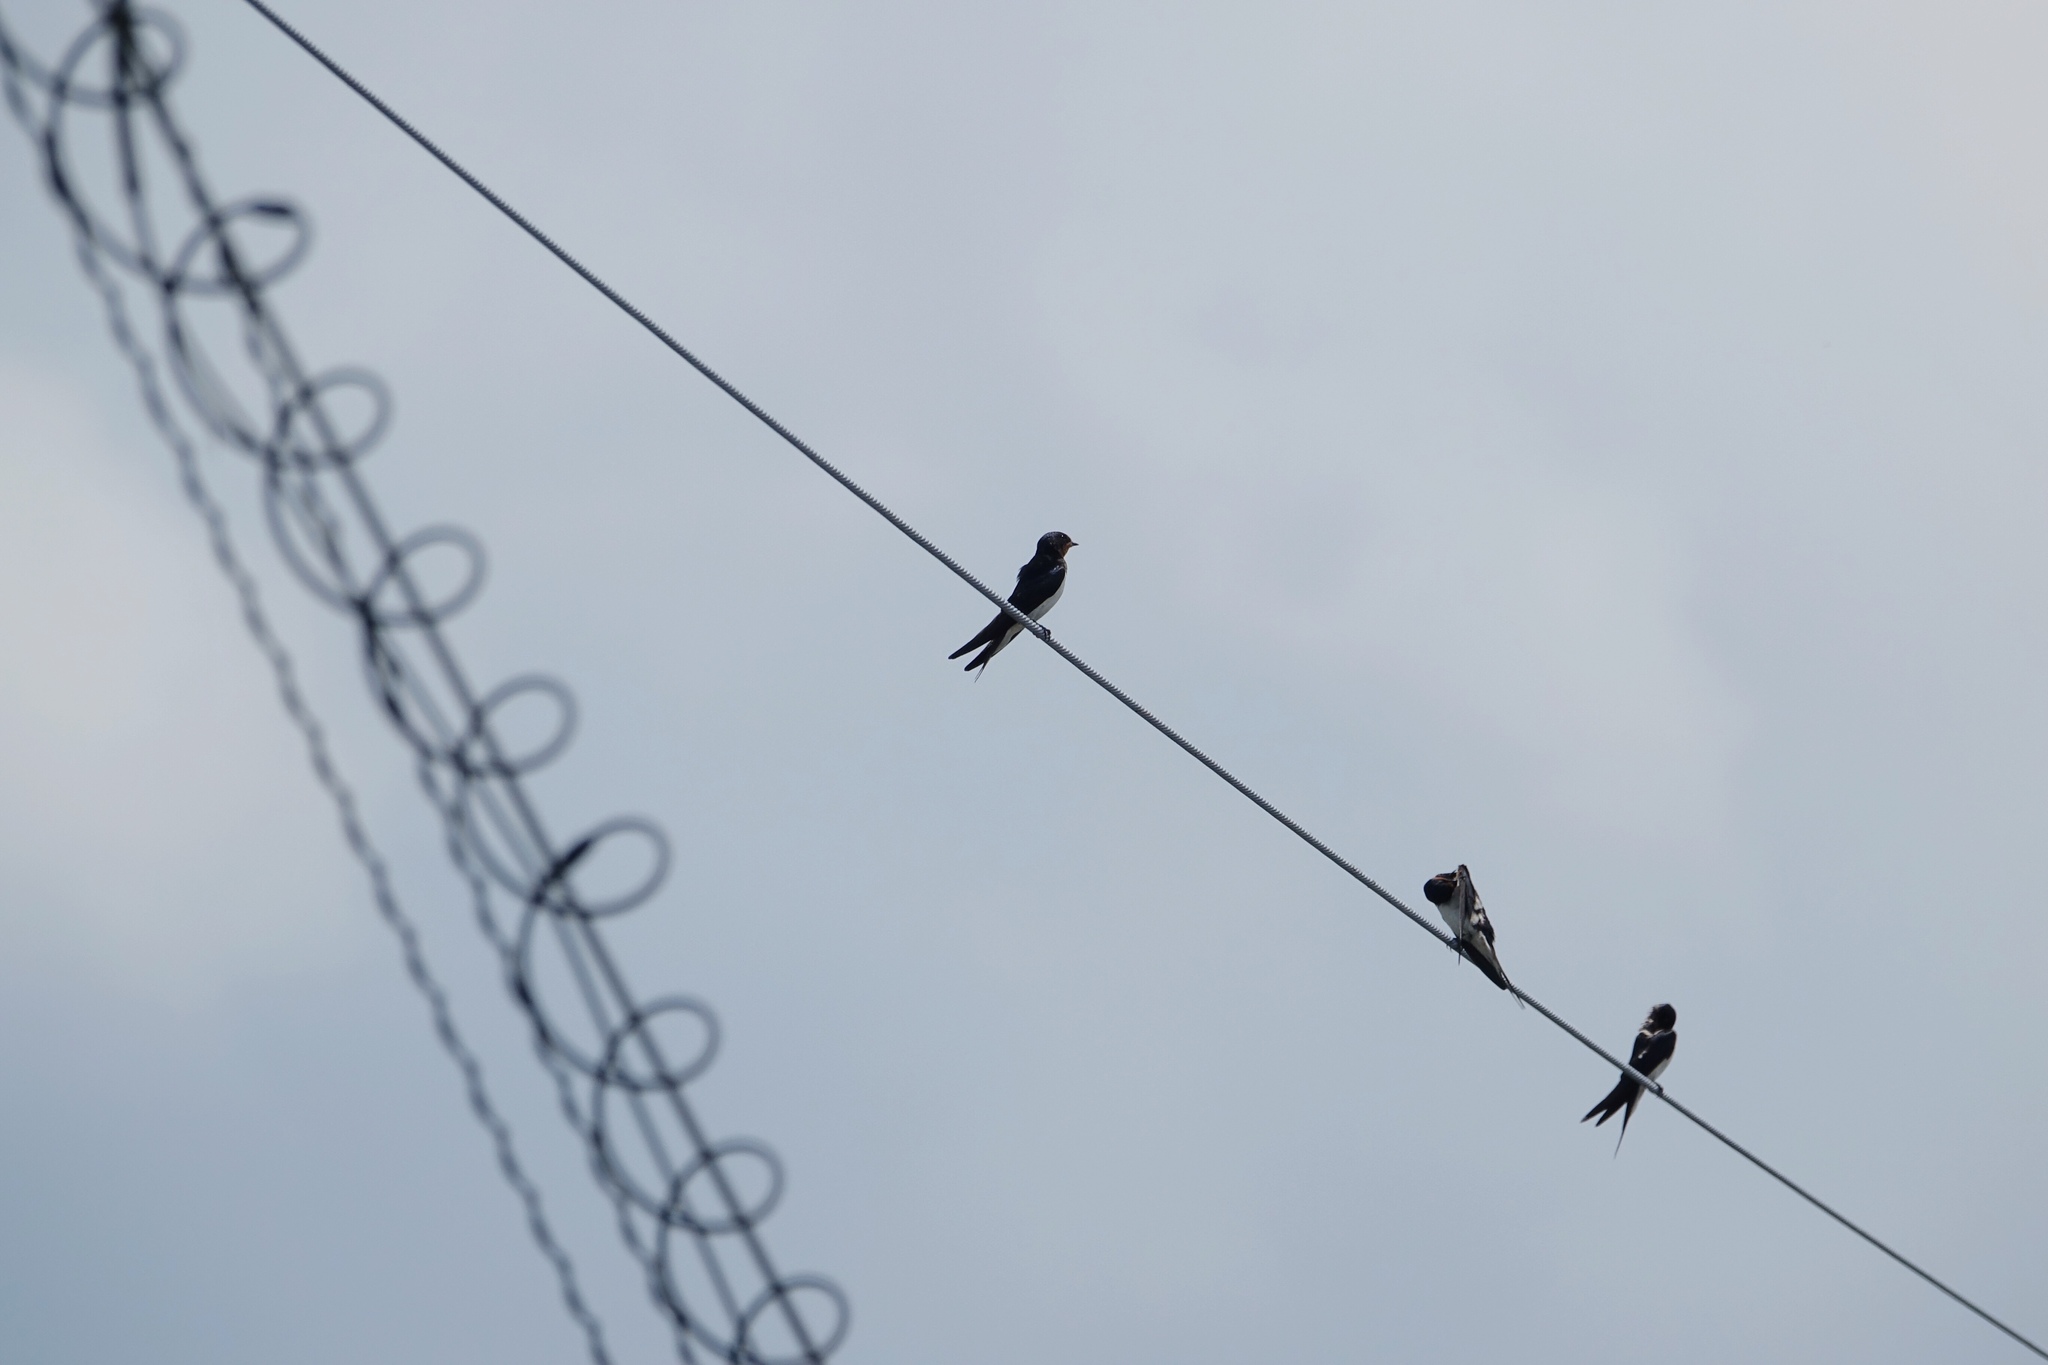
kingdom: Animalia
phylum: Chordata
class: Aves
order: Passeriformes
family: Hirundinidae
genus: Hirundo
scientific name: Hirundo rustica
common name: Barn swallow
